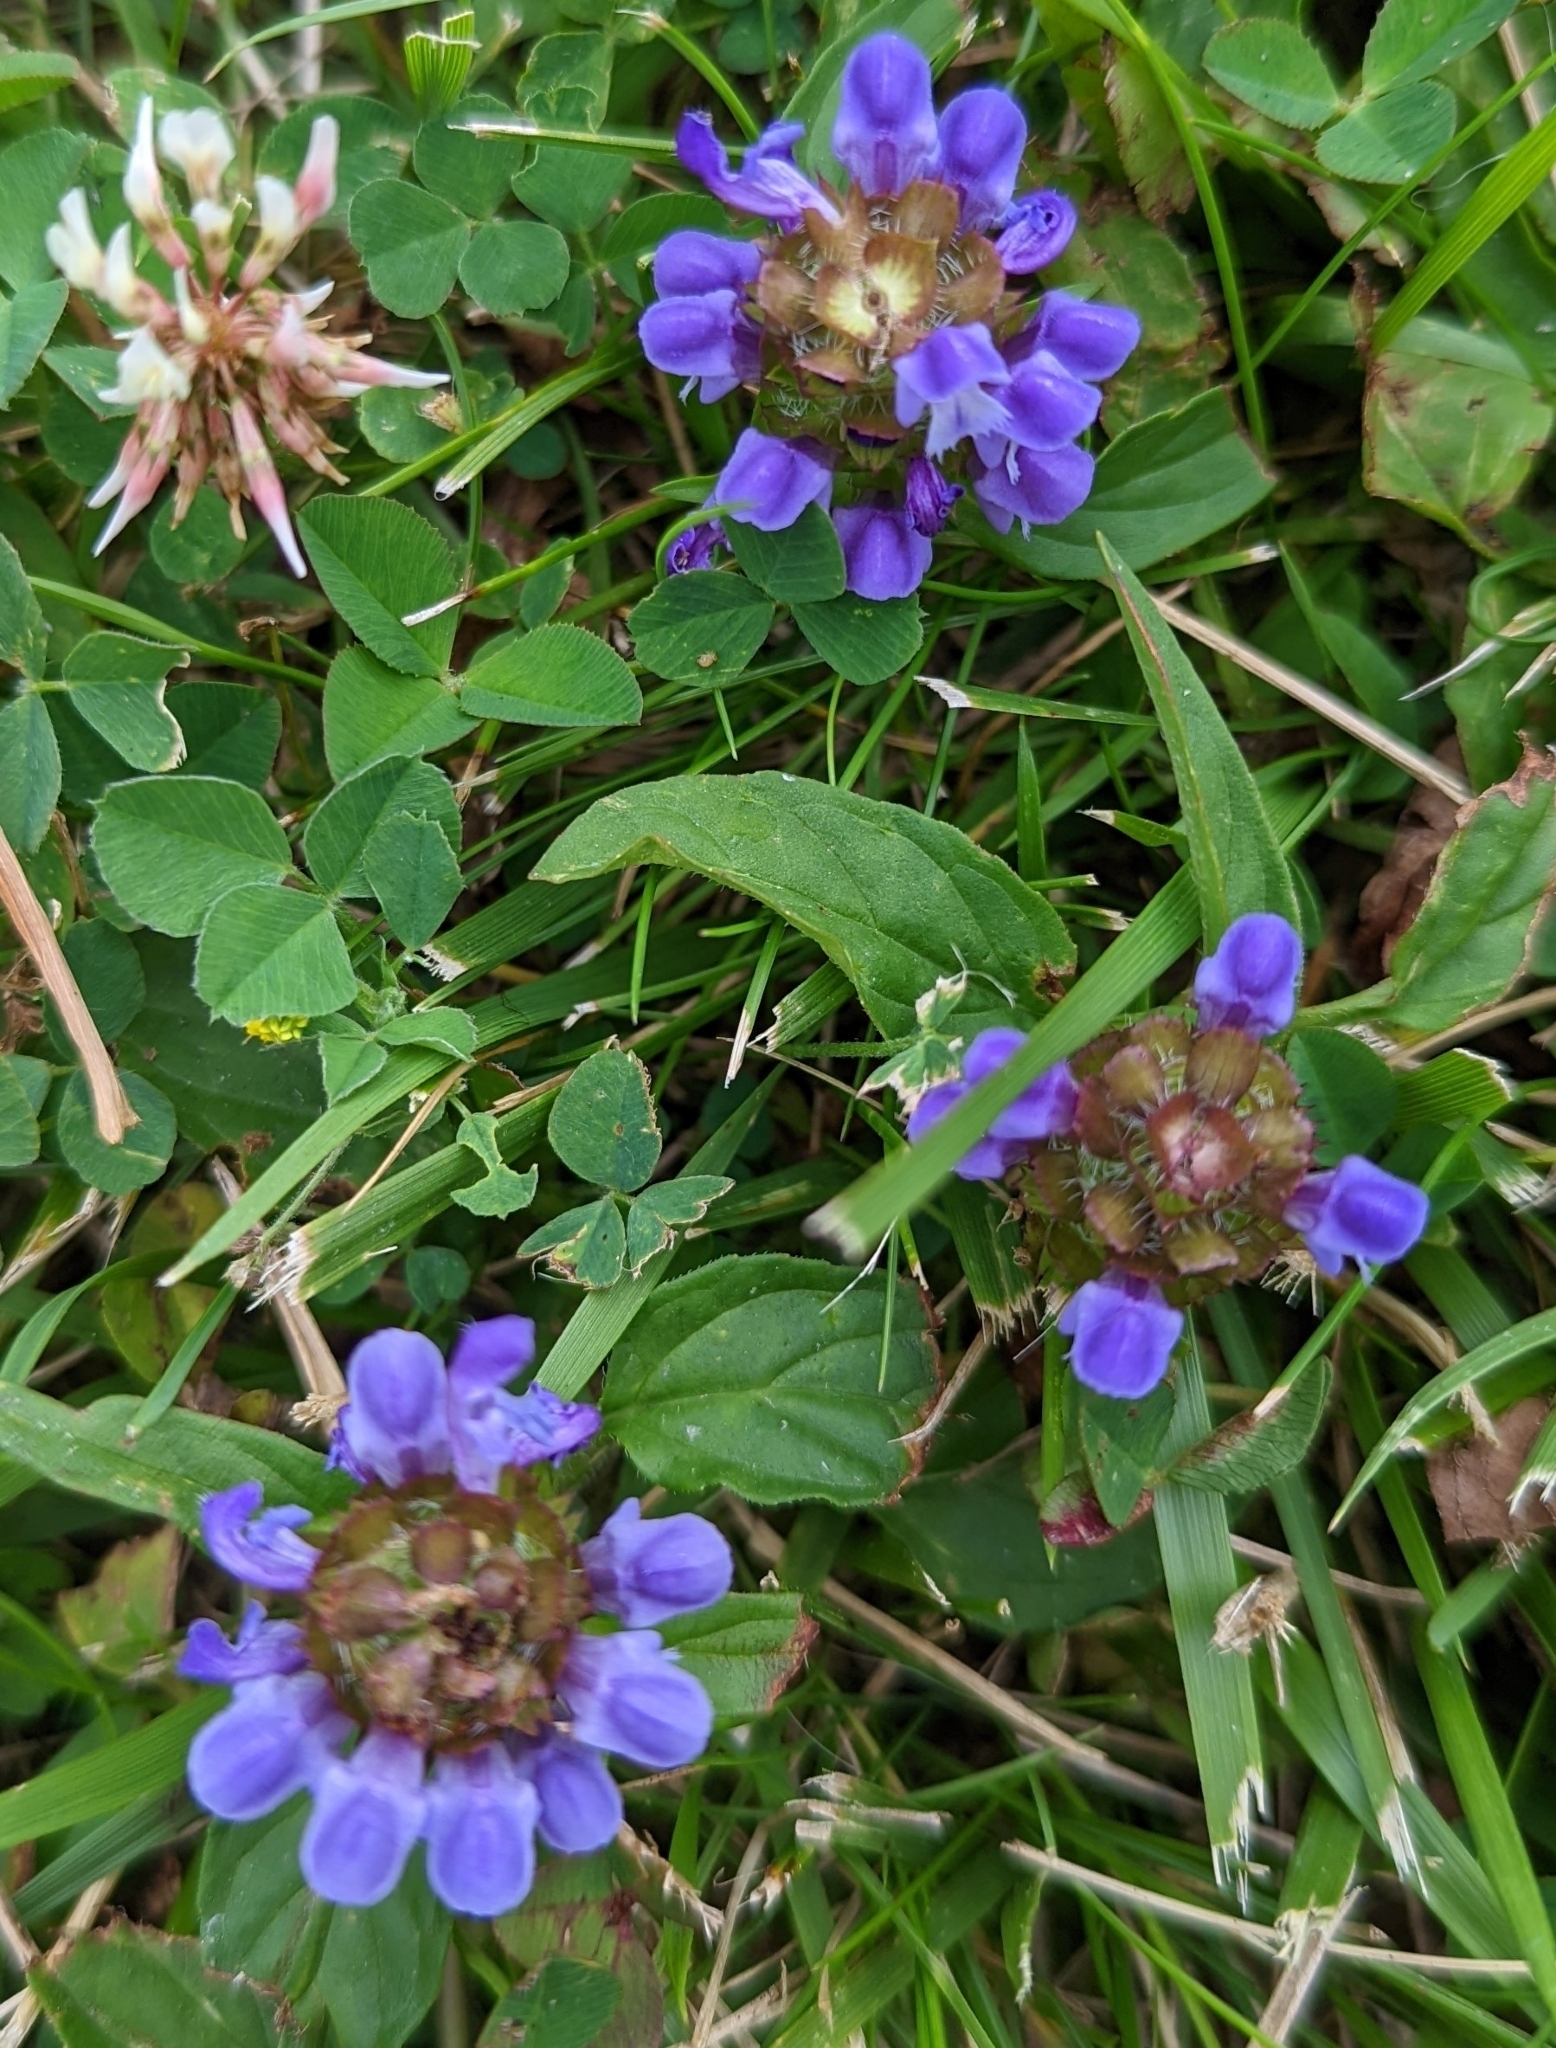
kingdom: Plantae
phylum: Tracheophyta
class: Magnoliopsida
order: Lamiales
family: Lamiaceae
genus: Prunella
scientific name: Prunella vulgaris
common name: Heal-all
